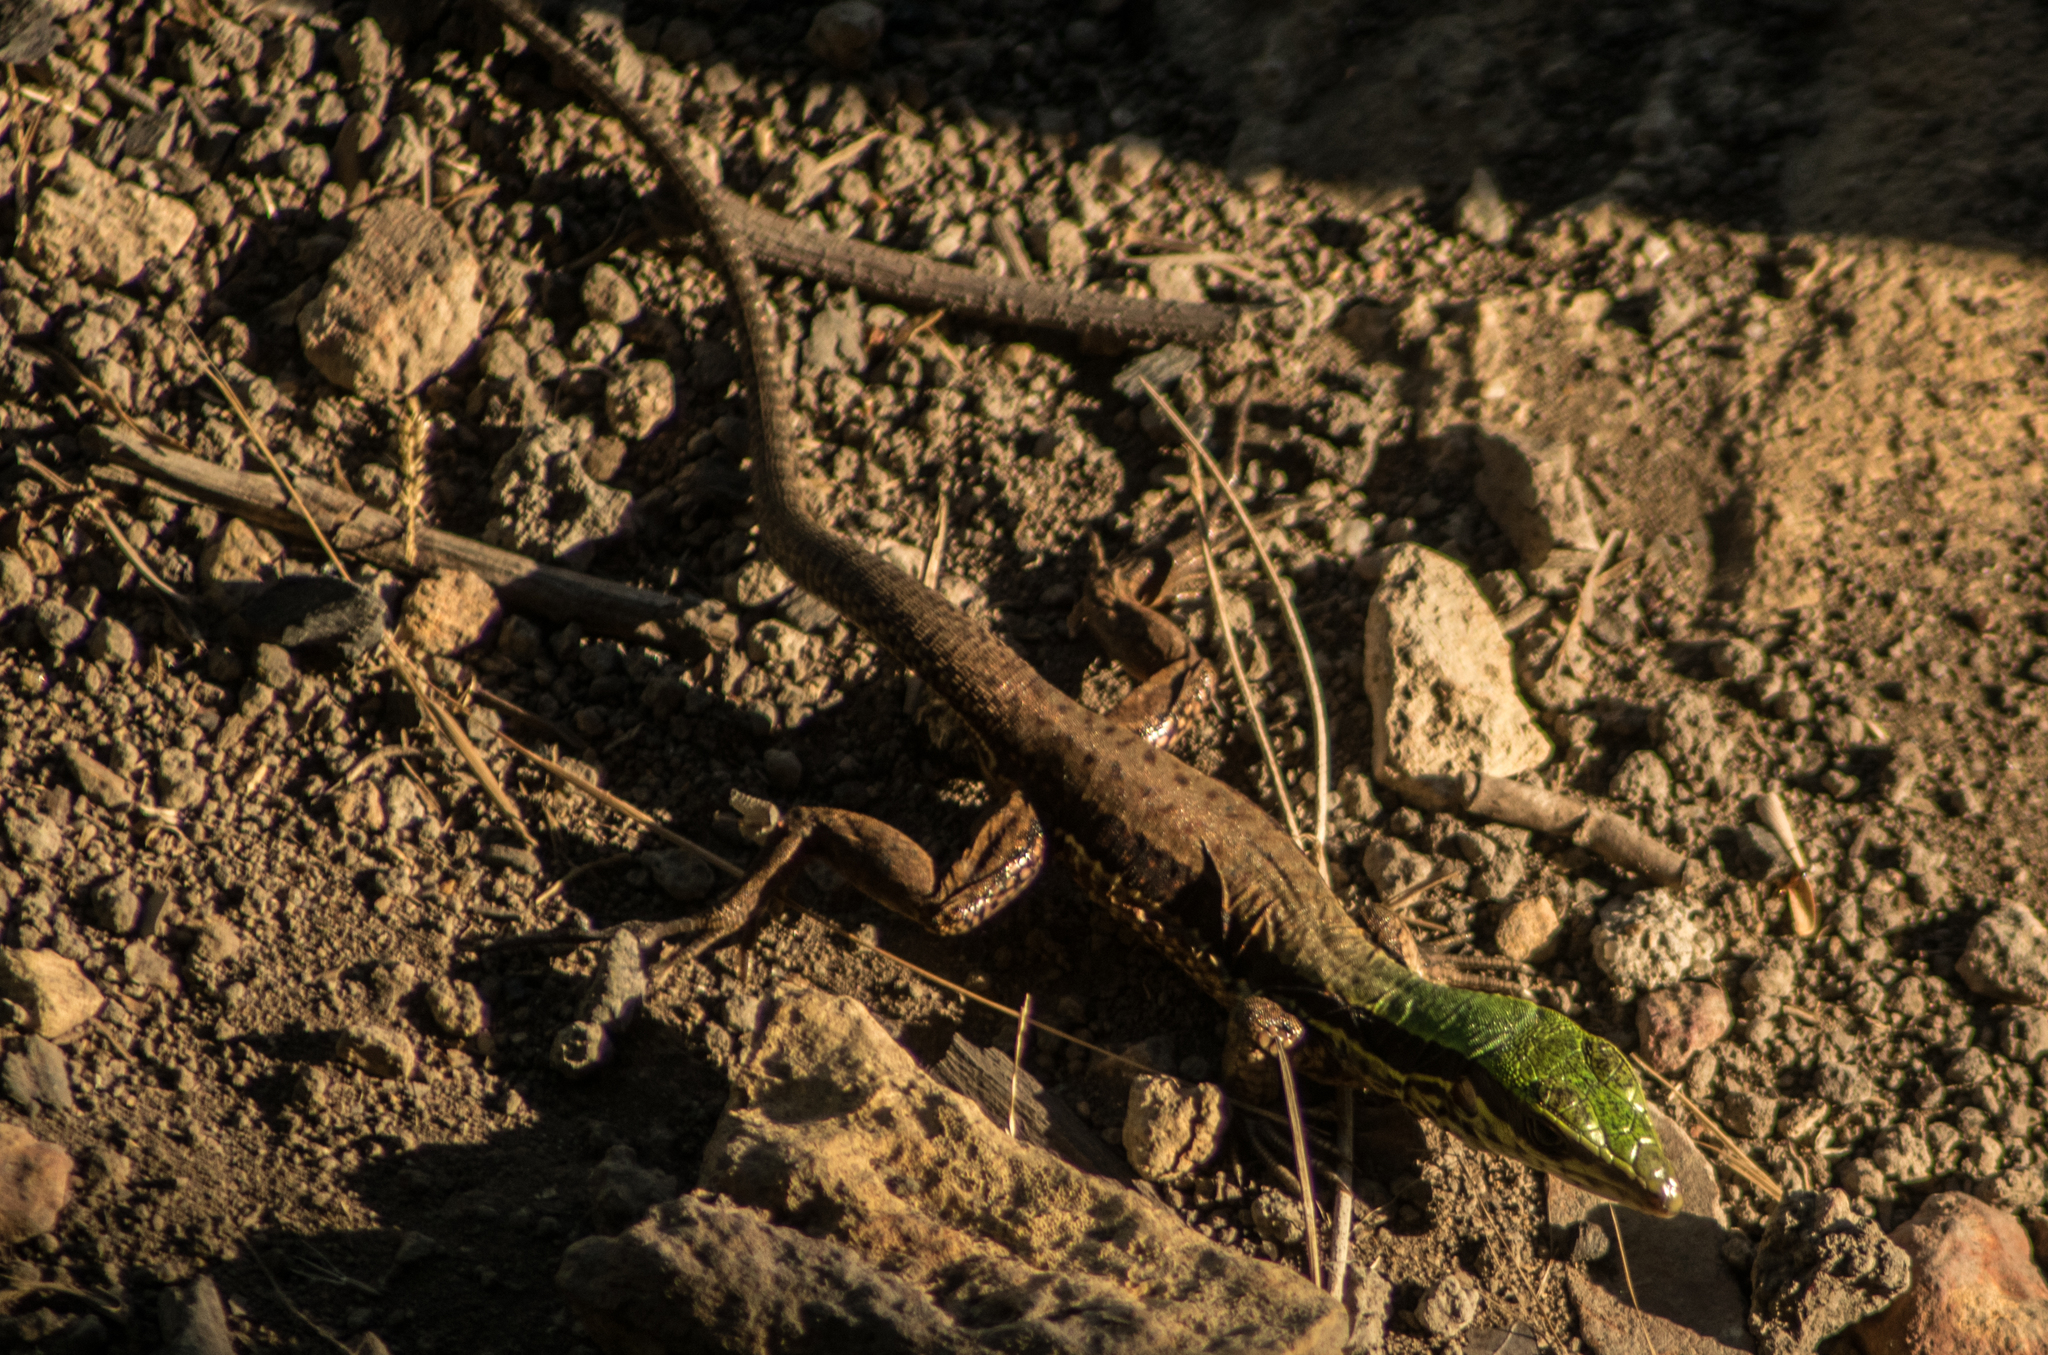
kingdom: Animalia
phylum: Chordata
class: Squamata
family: Teiidae
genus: Ameiva
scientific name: Ameiva ameiva
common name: Giant ameiva
